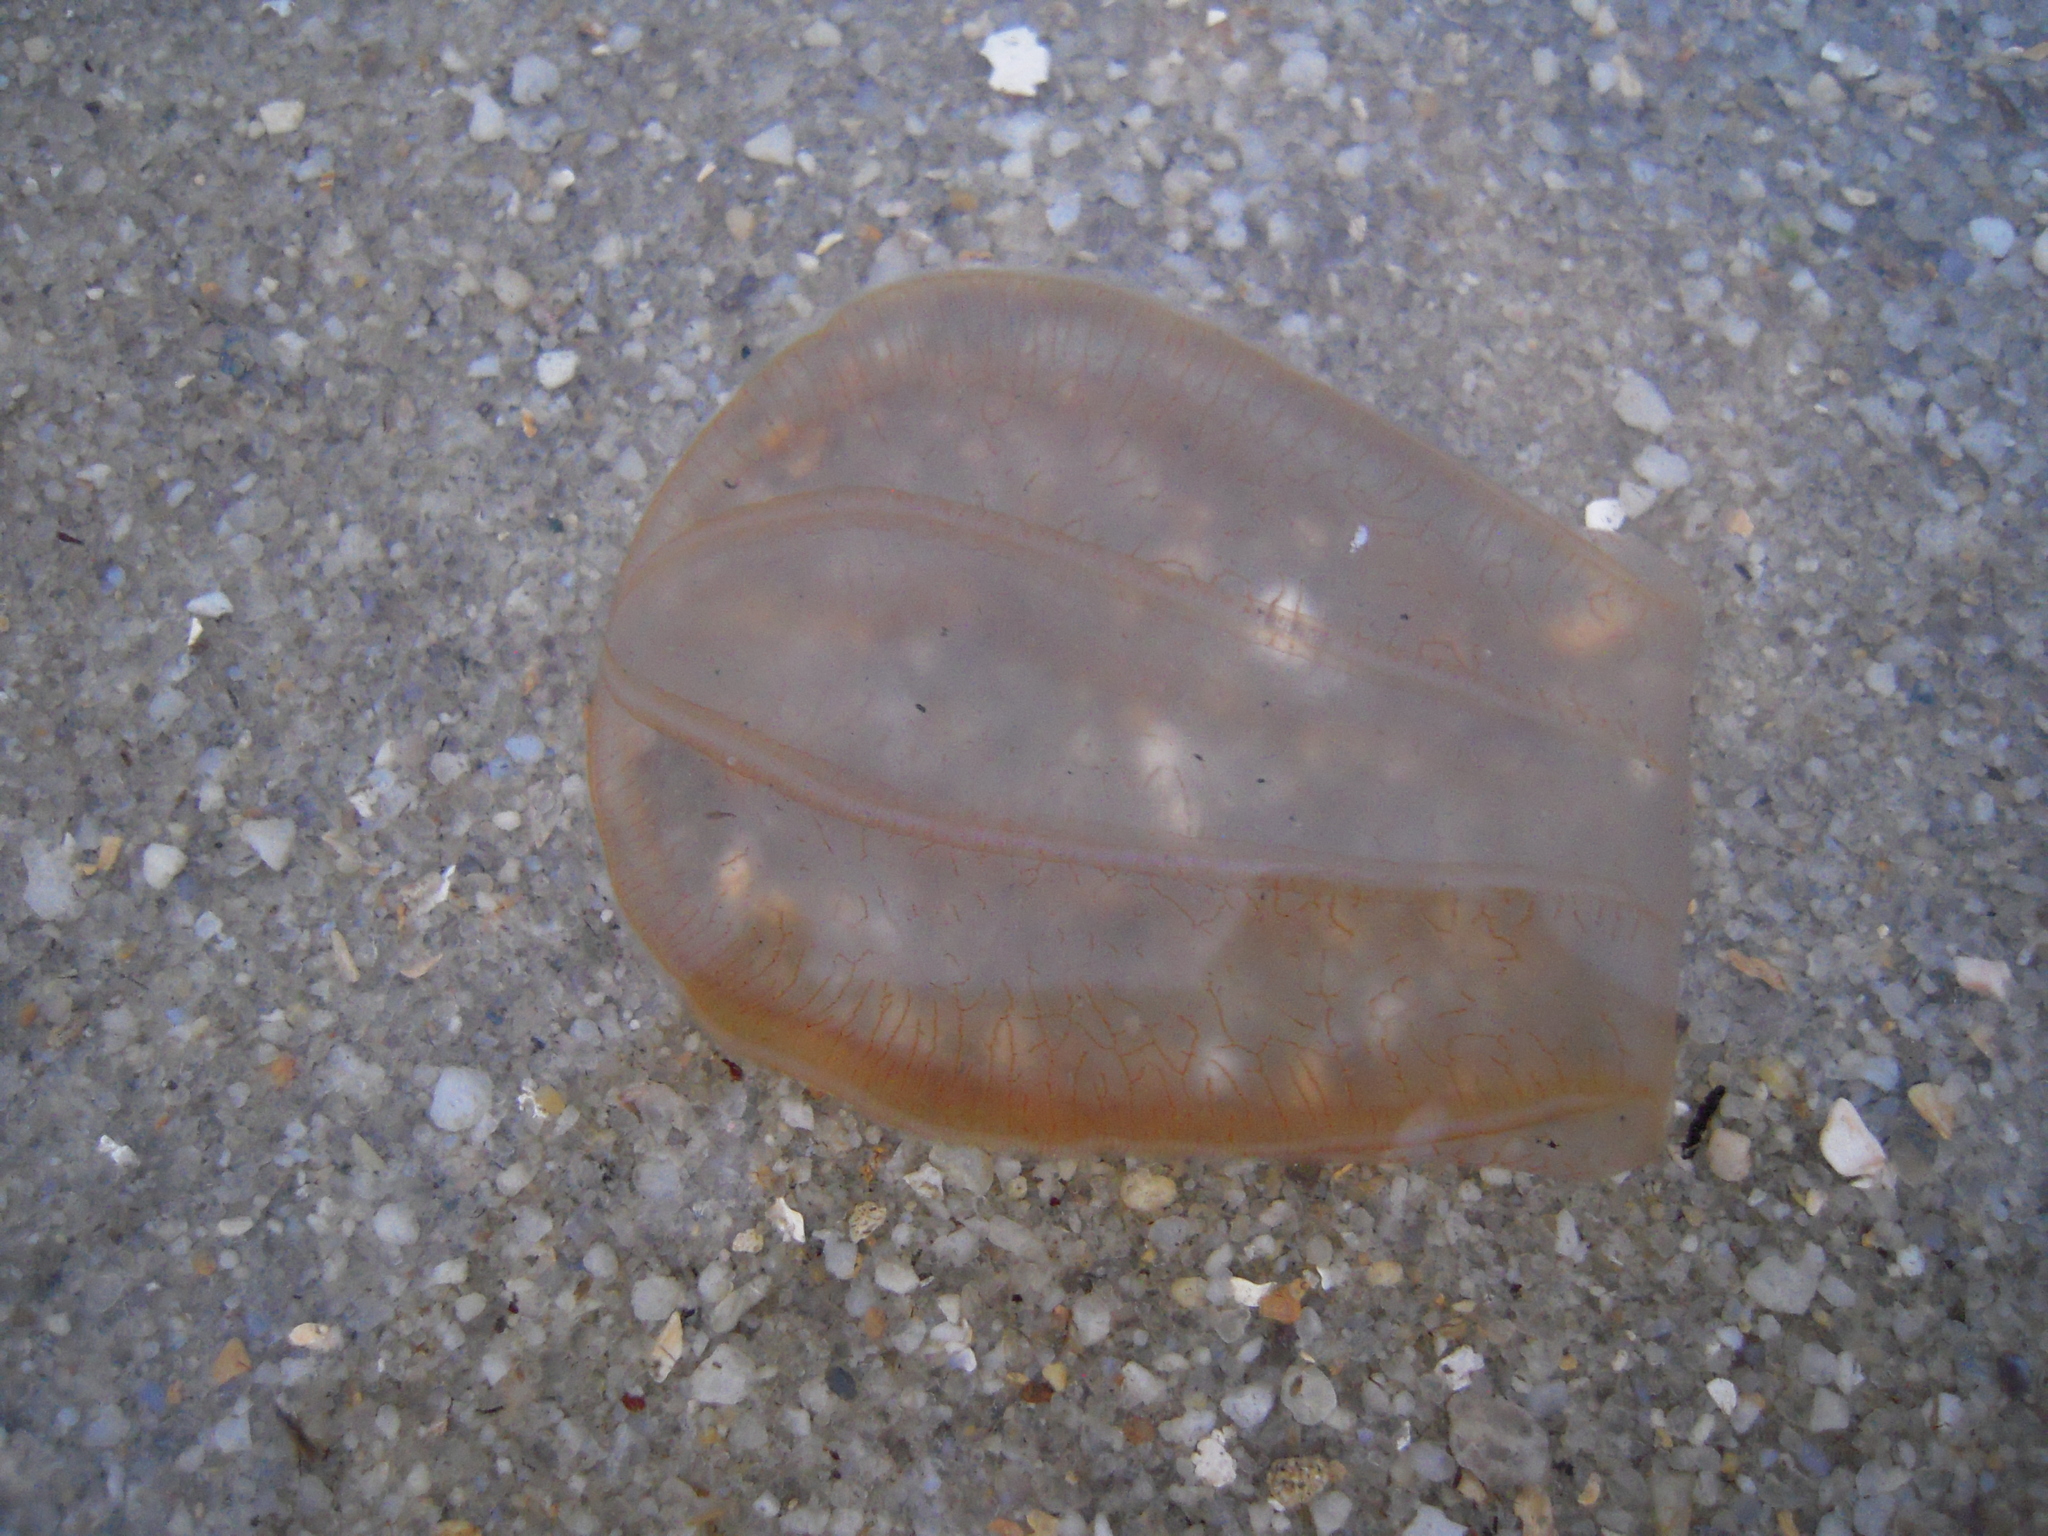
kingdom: Animalia
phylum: Ctenophora
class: Nuda
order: Beroida
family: Beroidae
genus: Beroe
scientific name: Beroe ovata
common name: Flattened helmet comb jelly
